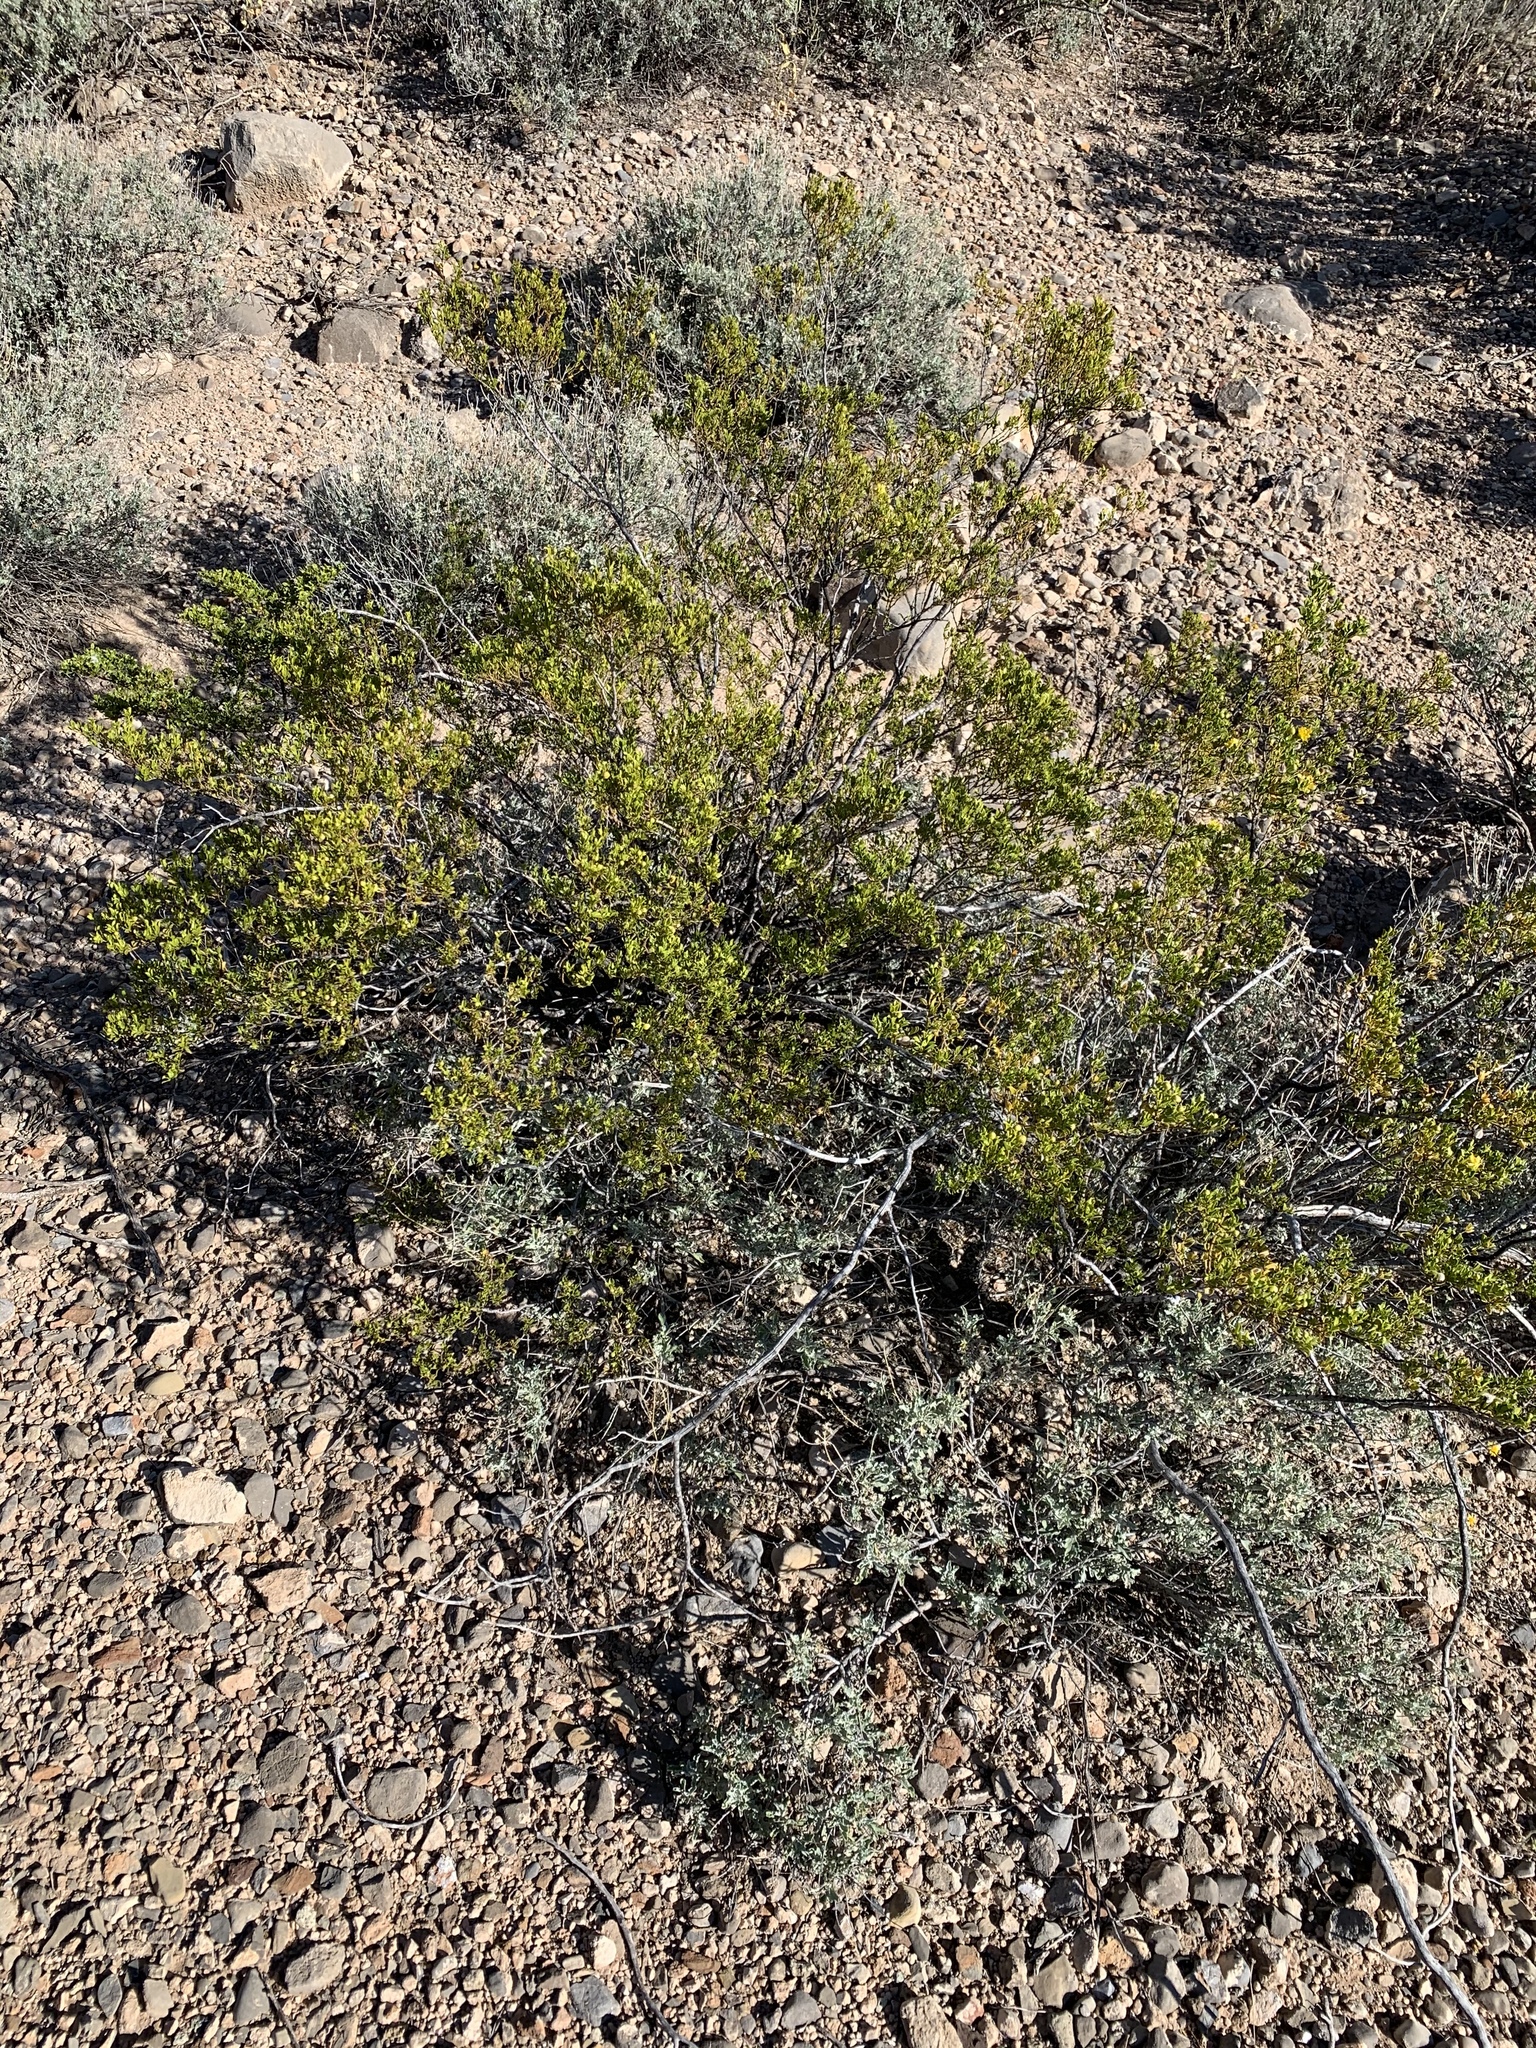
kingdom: Plantae
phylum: Tracheophyta
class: Magnoliopsida
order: Zygophyllales
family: Zygophyllaceae
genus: Larrea
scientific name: Larrea tridentata
